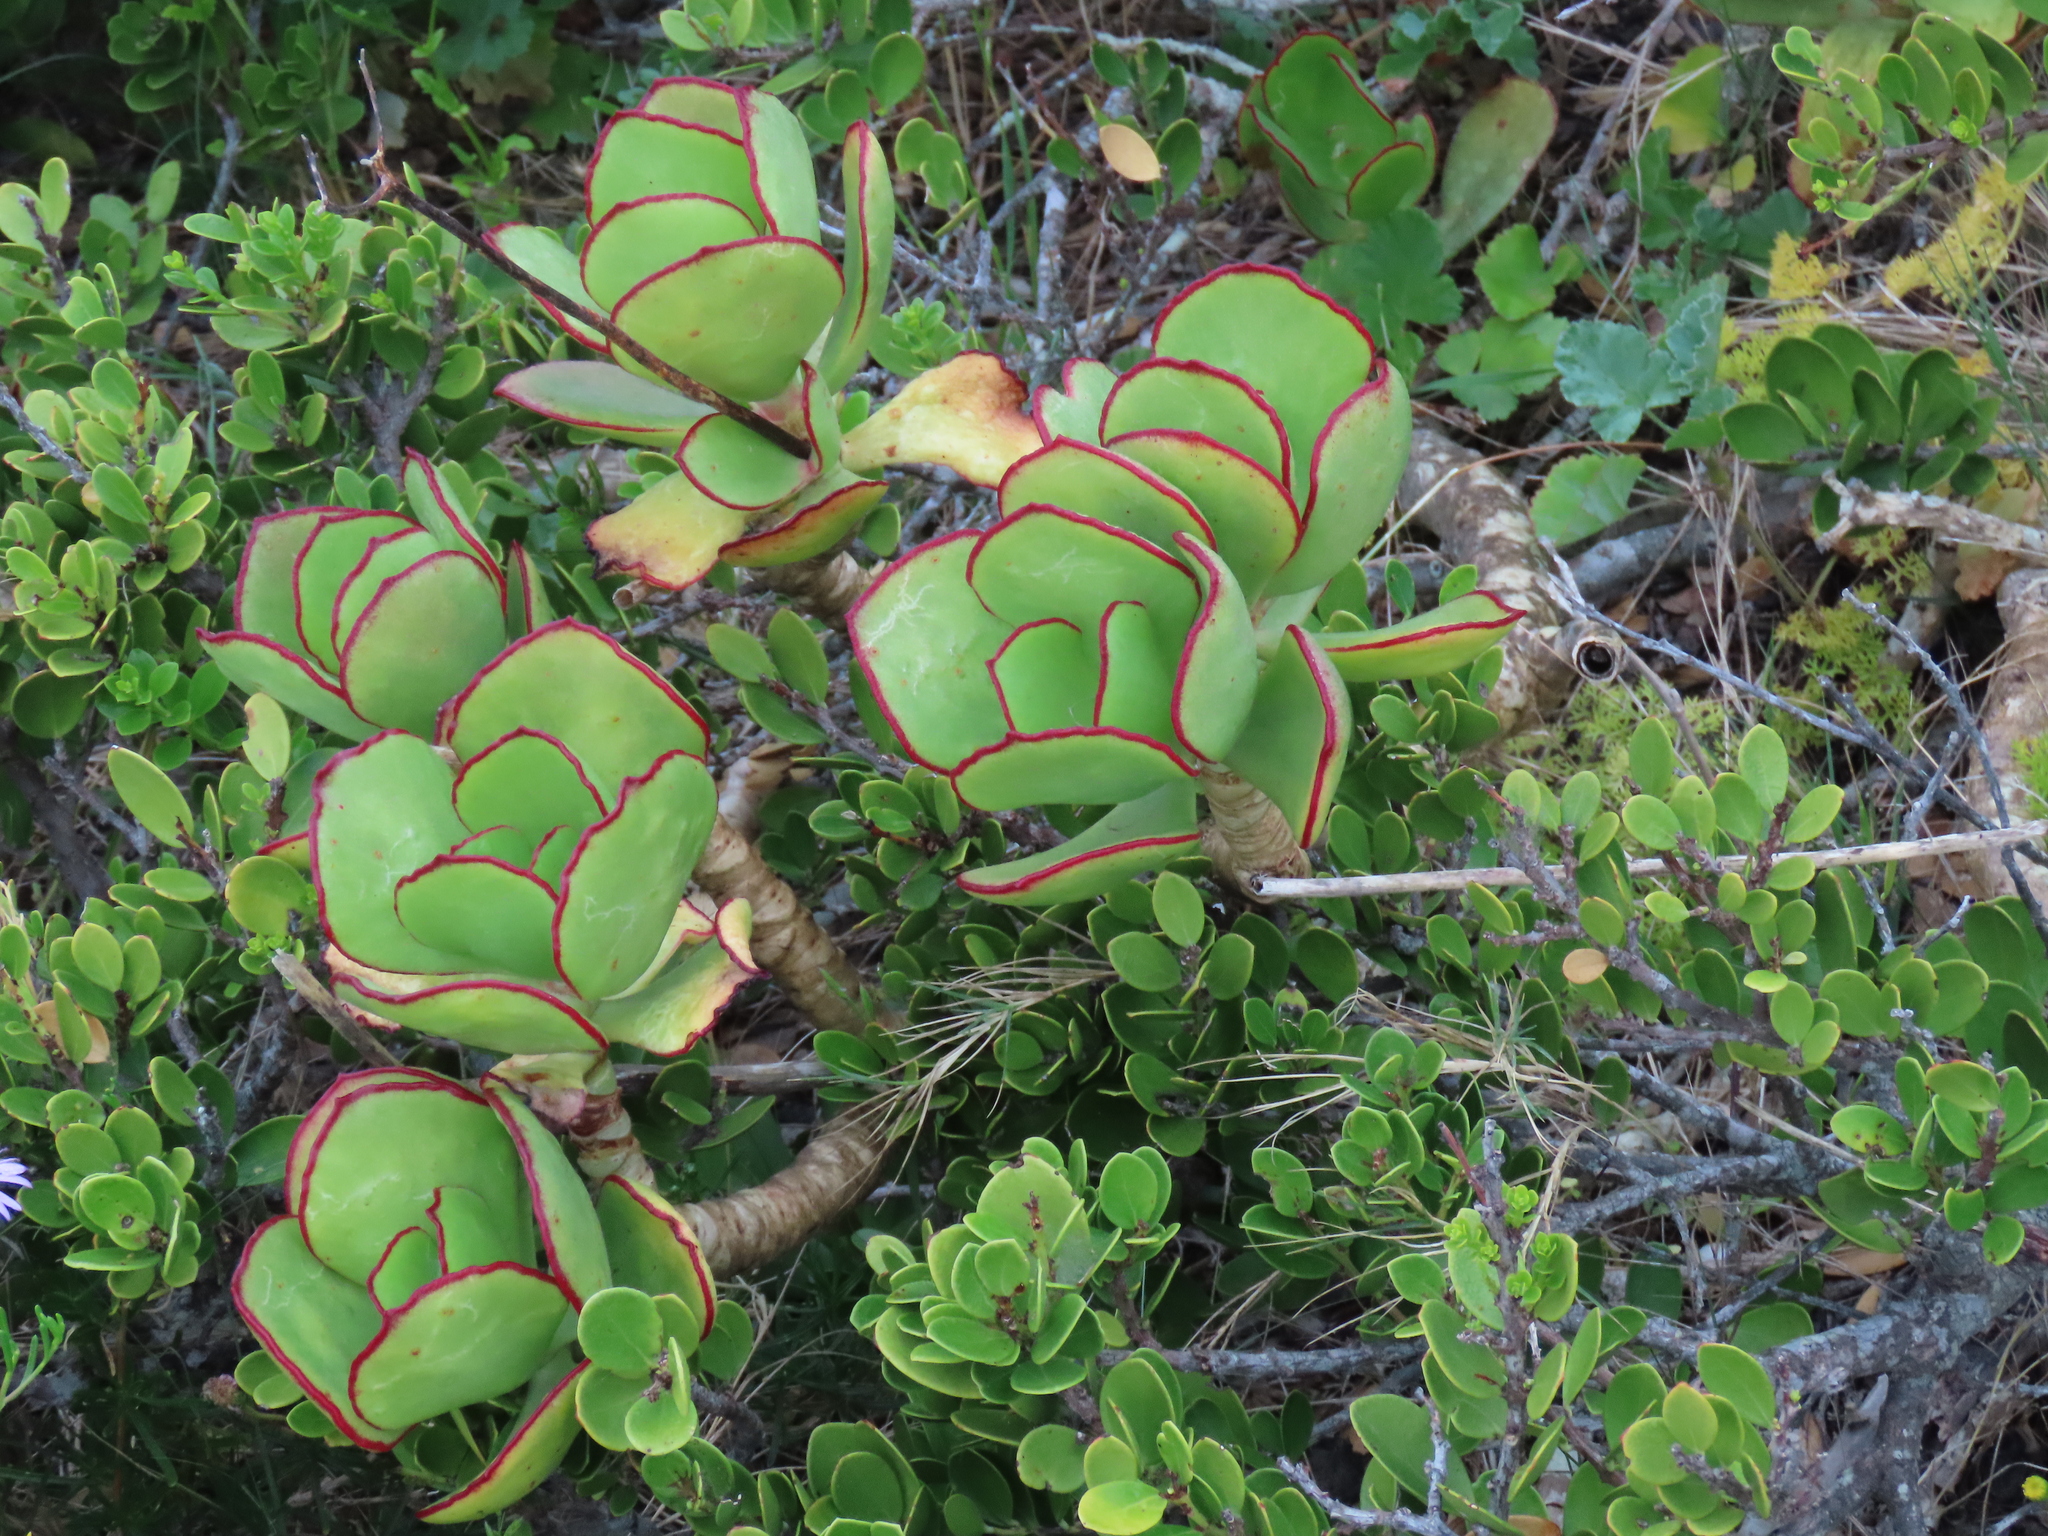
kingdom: Plantae
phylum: Tracheophyta
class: Magnoliopsida
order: Saxifragales
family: Crassulaceae
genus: Cotyledon
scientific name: Cotyledon orbiculata
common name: Pig's ear
